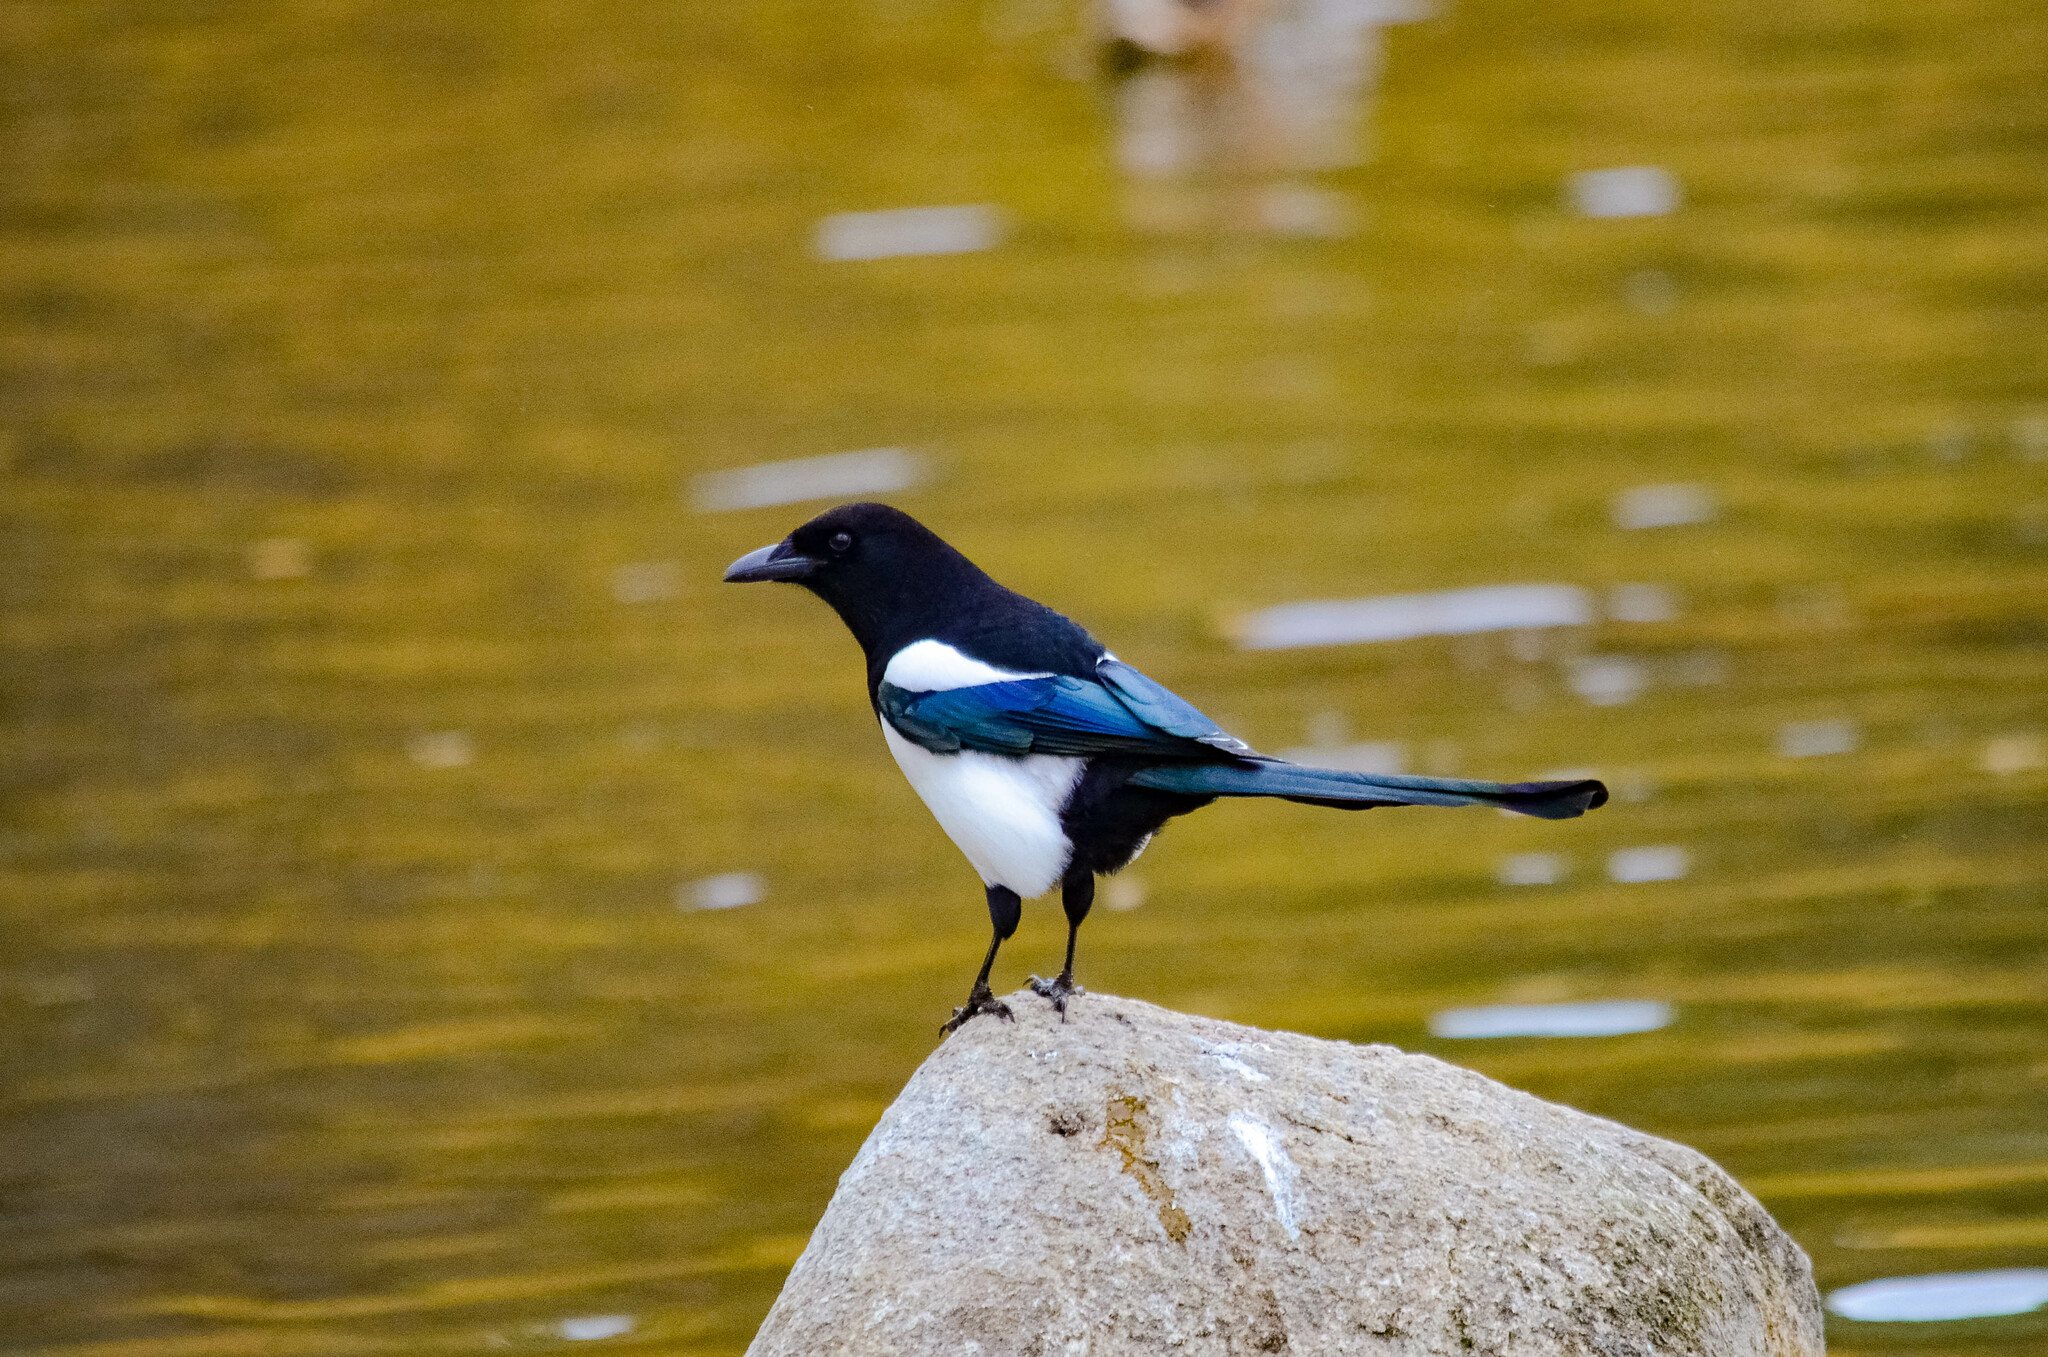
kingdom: Animalia
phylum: Chordata
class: Aves
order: Passeriformes
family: Corvidae
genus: Pica
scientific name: Pica pica
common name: Eurasian magpie
